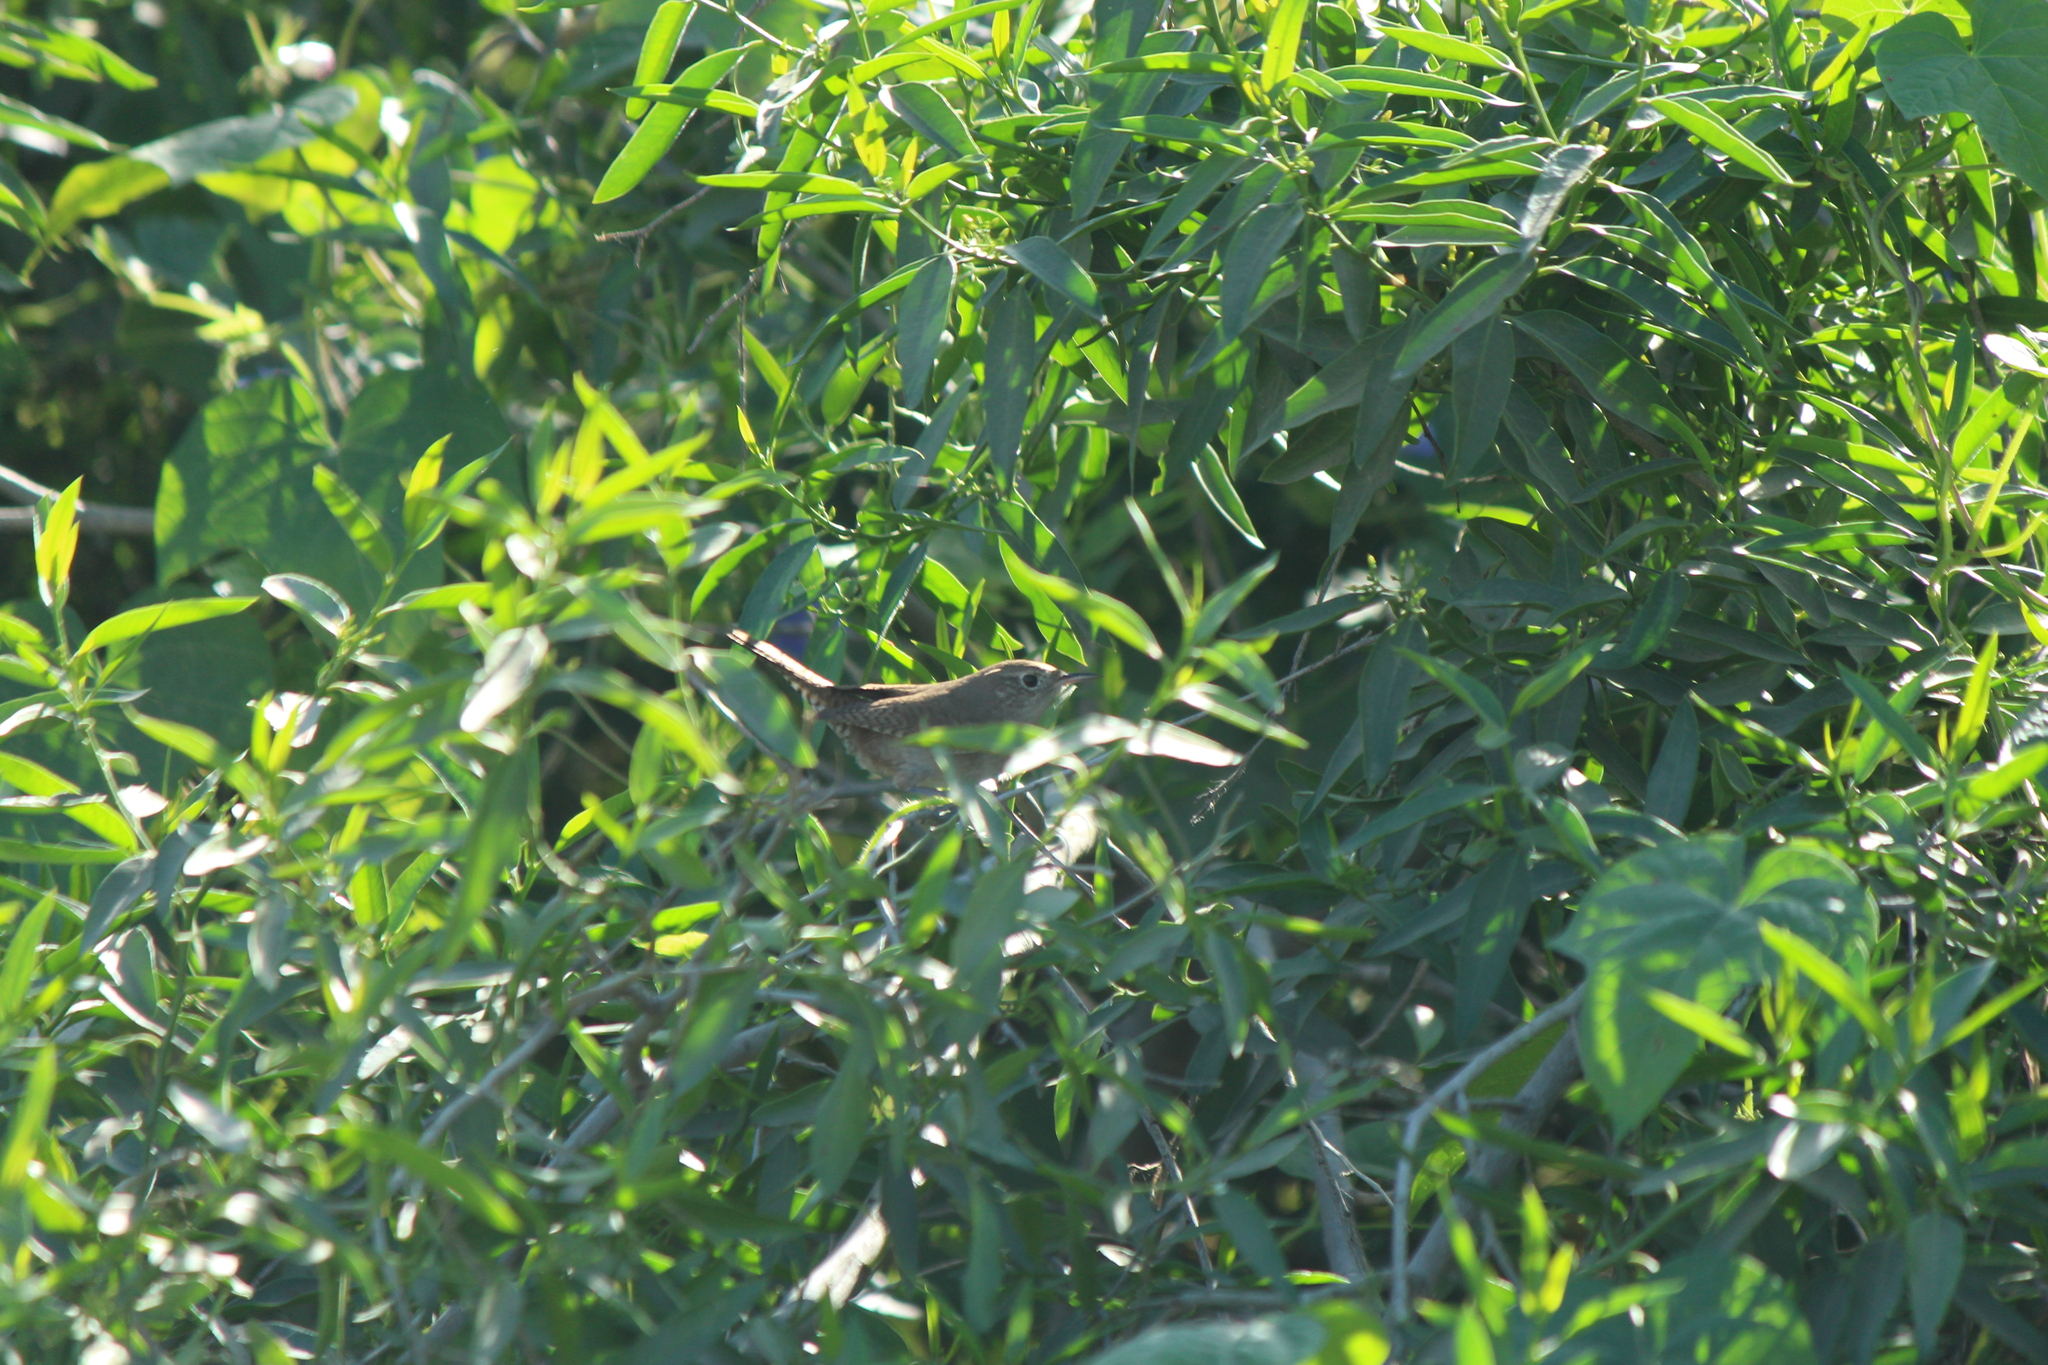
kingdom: Animalia
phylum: Chordata
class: Aves
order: Passeriformes
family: Troglodytidae
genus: Troglodytes
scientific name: Troglodytes aedon
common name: House wren
